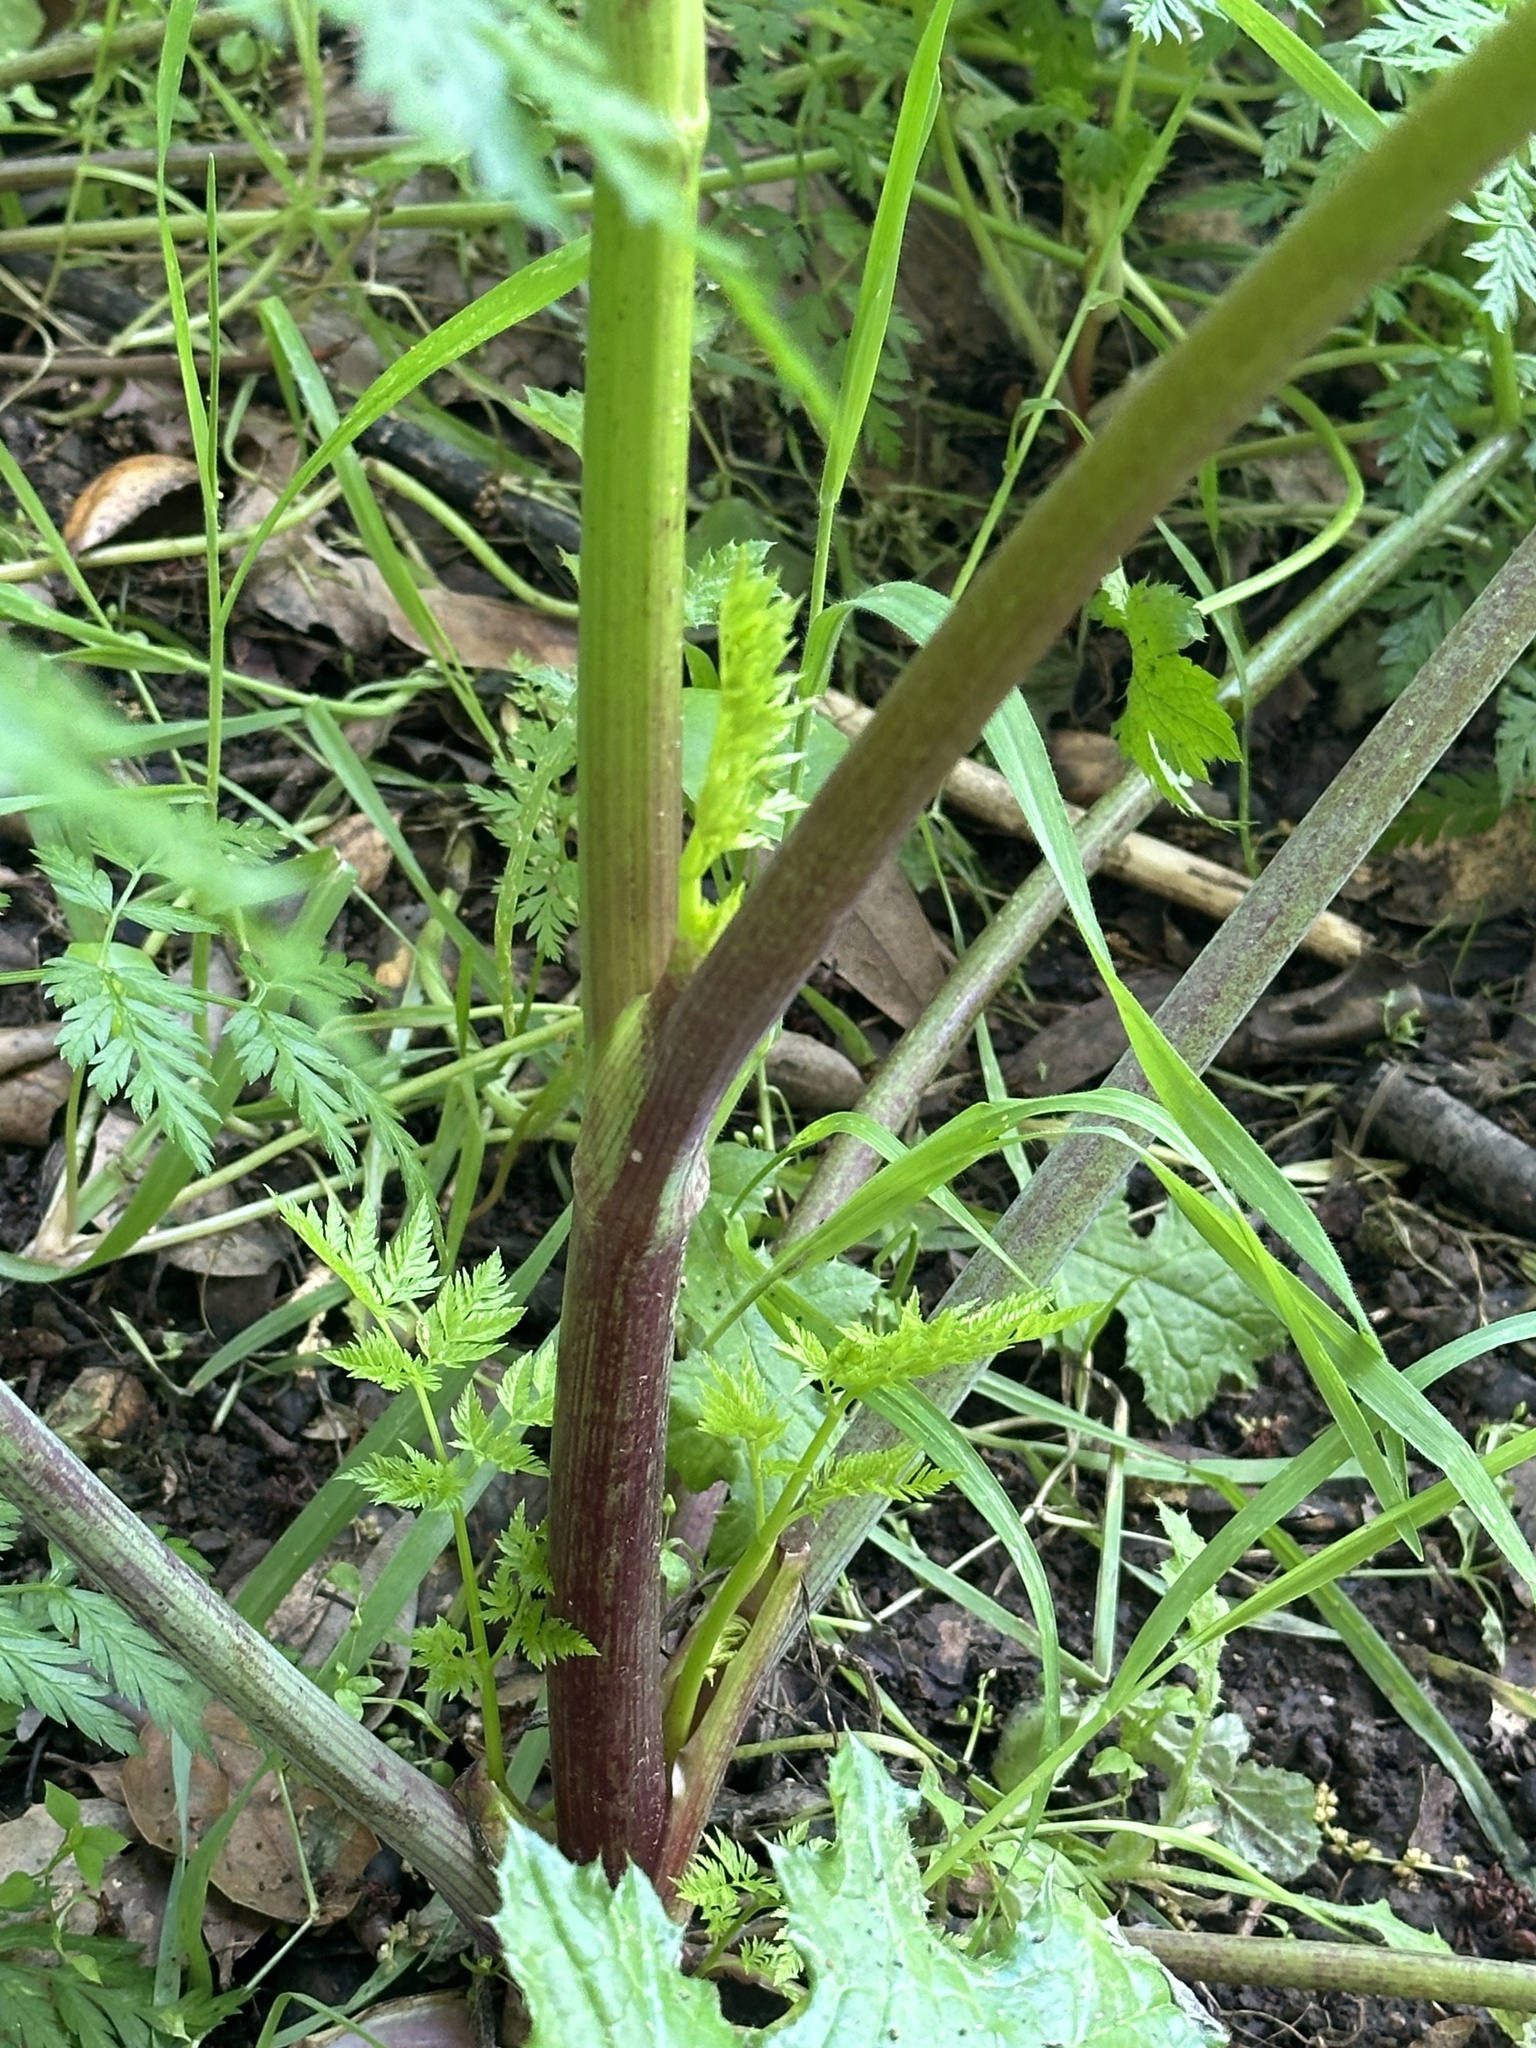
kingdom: Plantae
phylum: Tracheophyta
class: Magnoliopsida
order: Apiales
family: Apiaceae
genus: Conium
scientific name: Conium maculatum
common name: Hemlock
